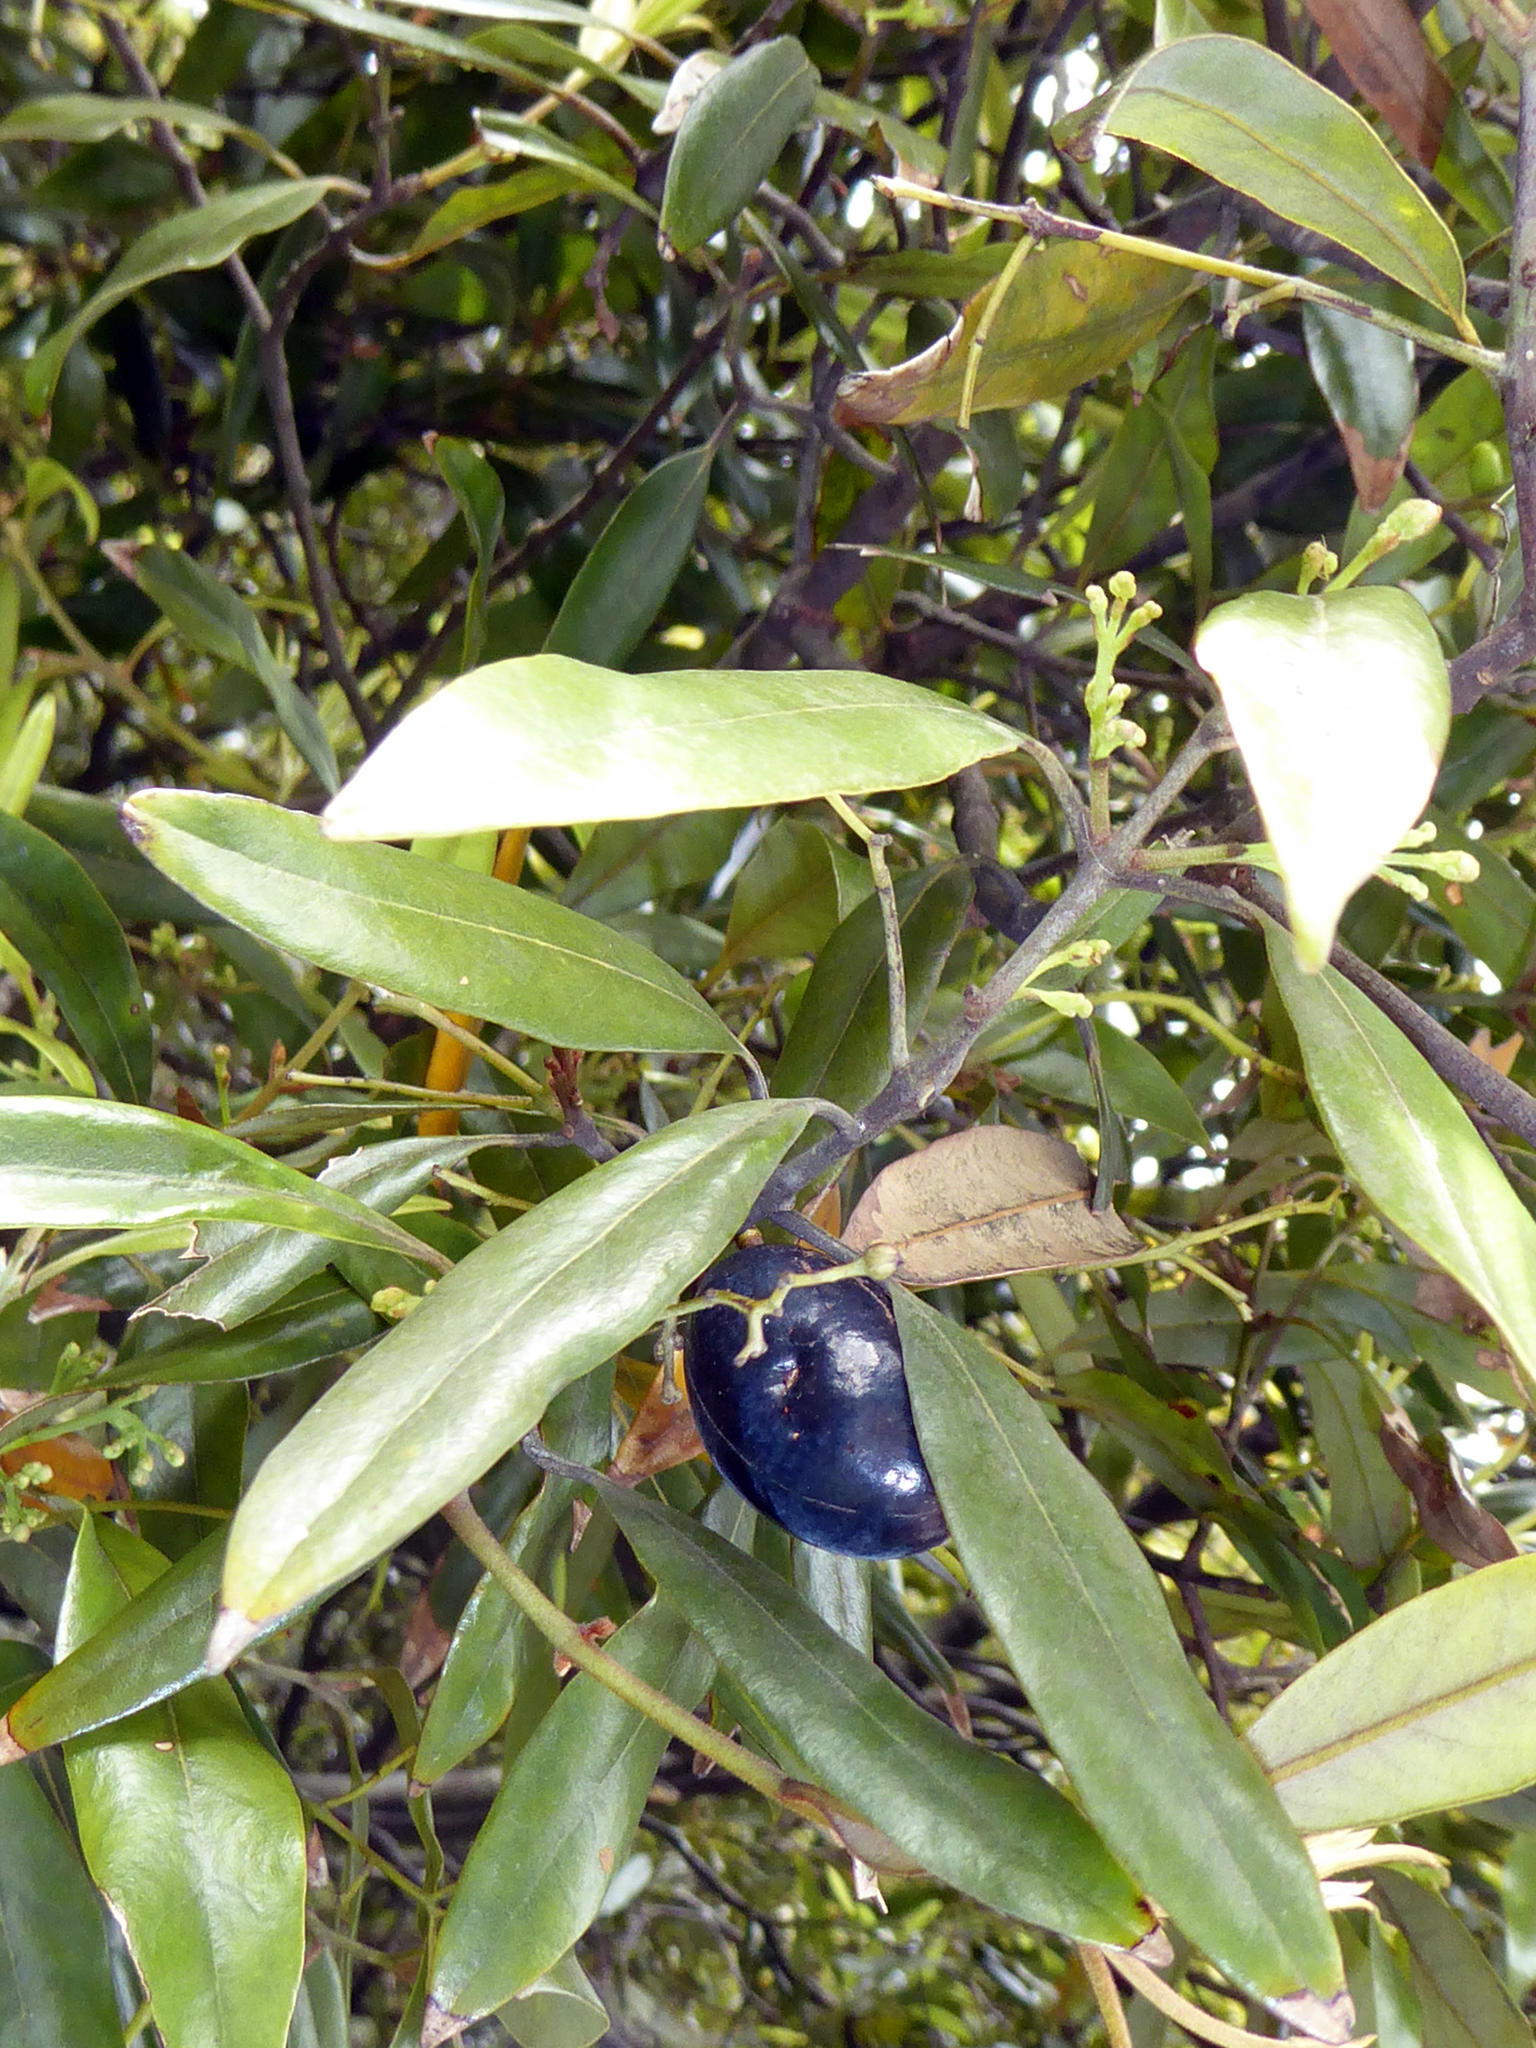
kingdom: Plantae
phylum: Tracheophyta
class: Magnoliopsida
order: Laurales
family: Lauraceae
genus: Beilschmiedia
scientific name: Beilschmiedia tawa
